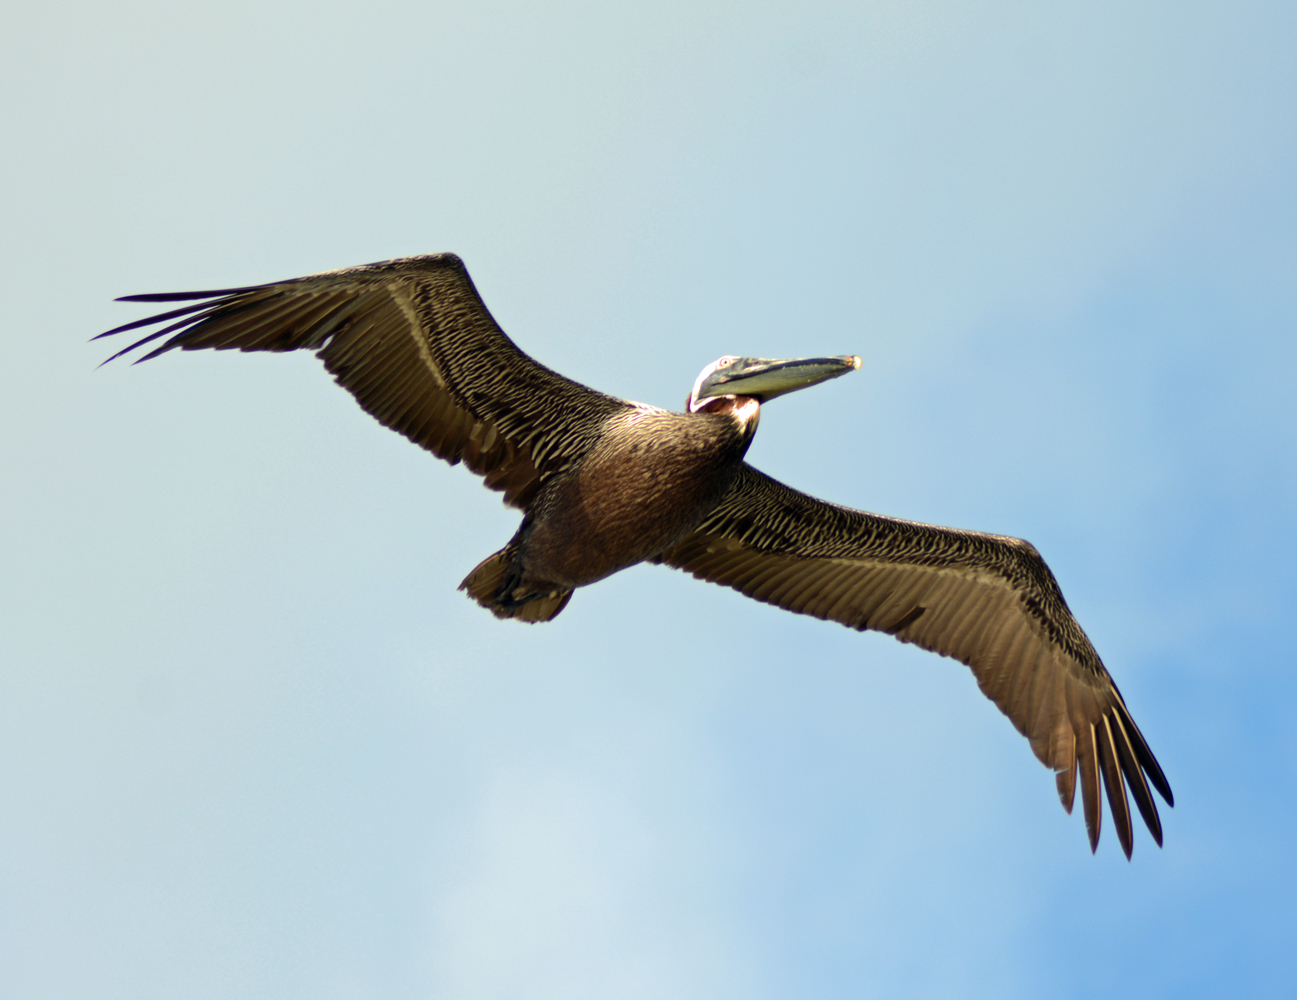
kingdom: Animalia
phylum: Chordata
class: Aves
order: Pelecaniformes
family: Pelecanidae
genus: Pelecanus
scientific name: Pelecanus occidentalis
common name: Brown pelican
